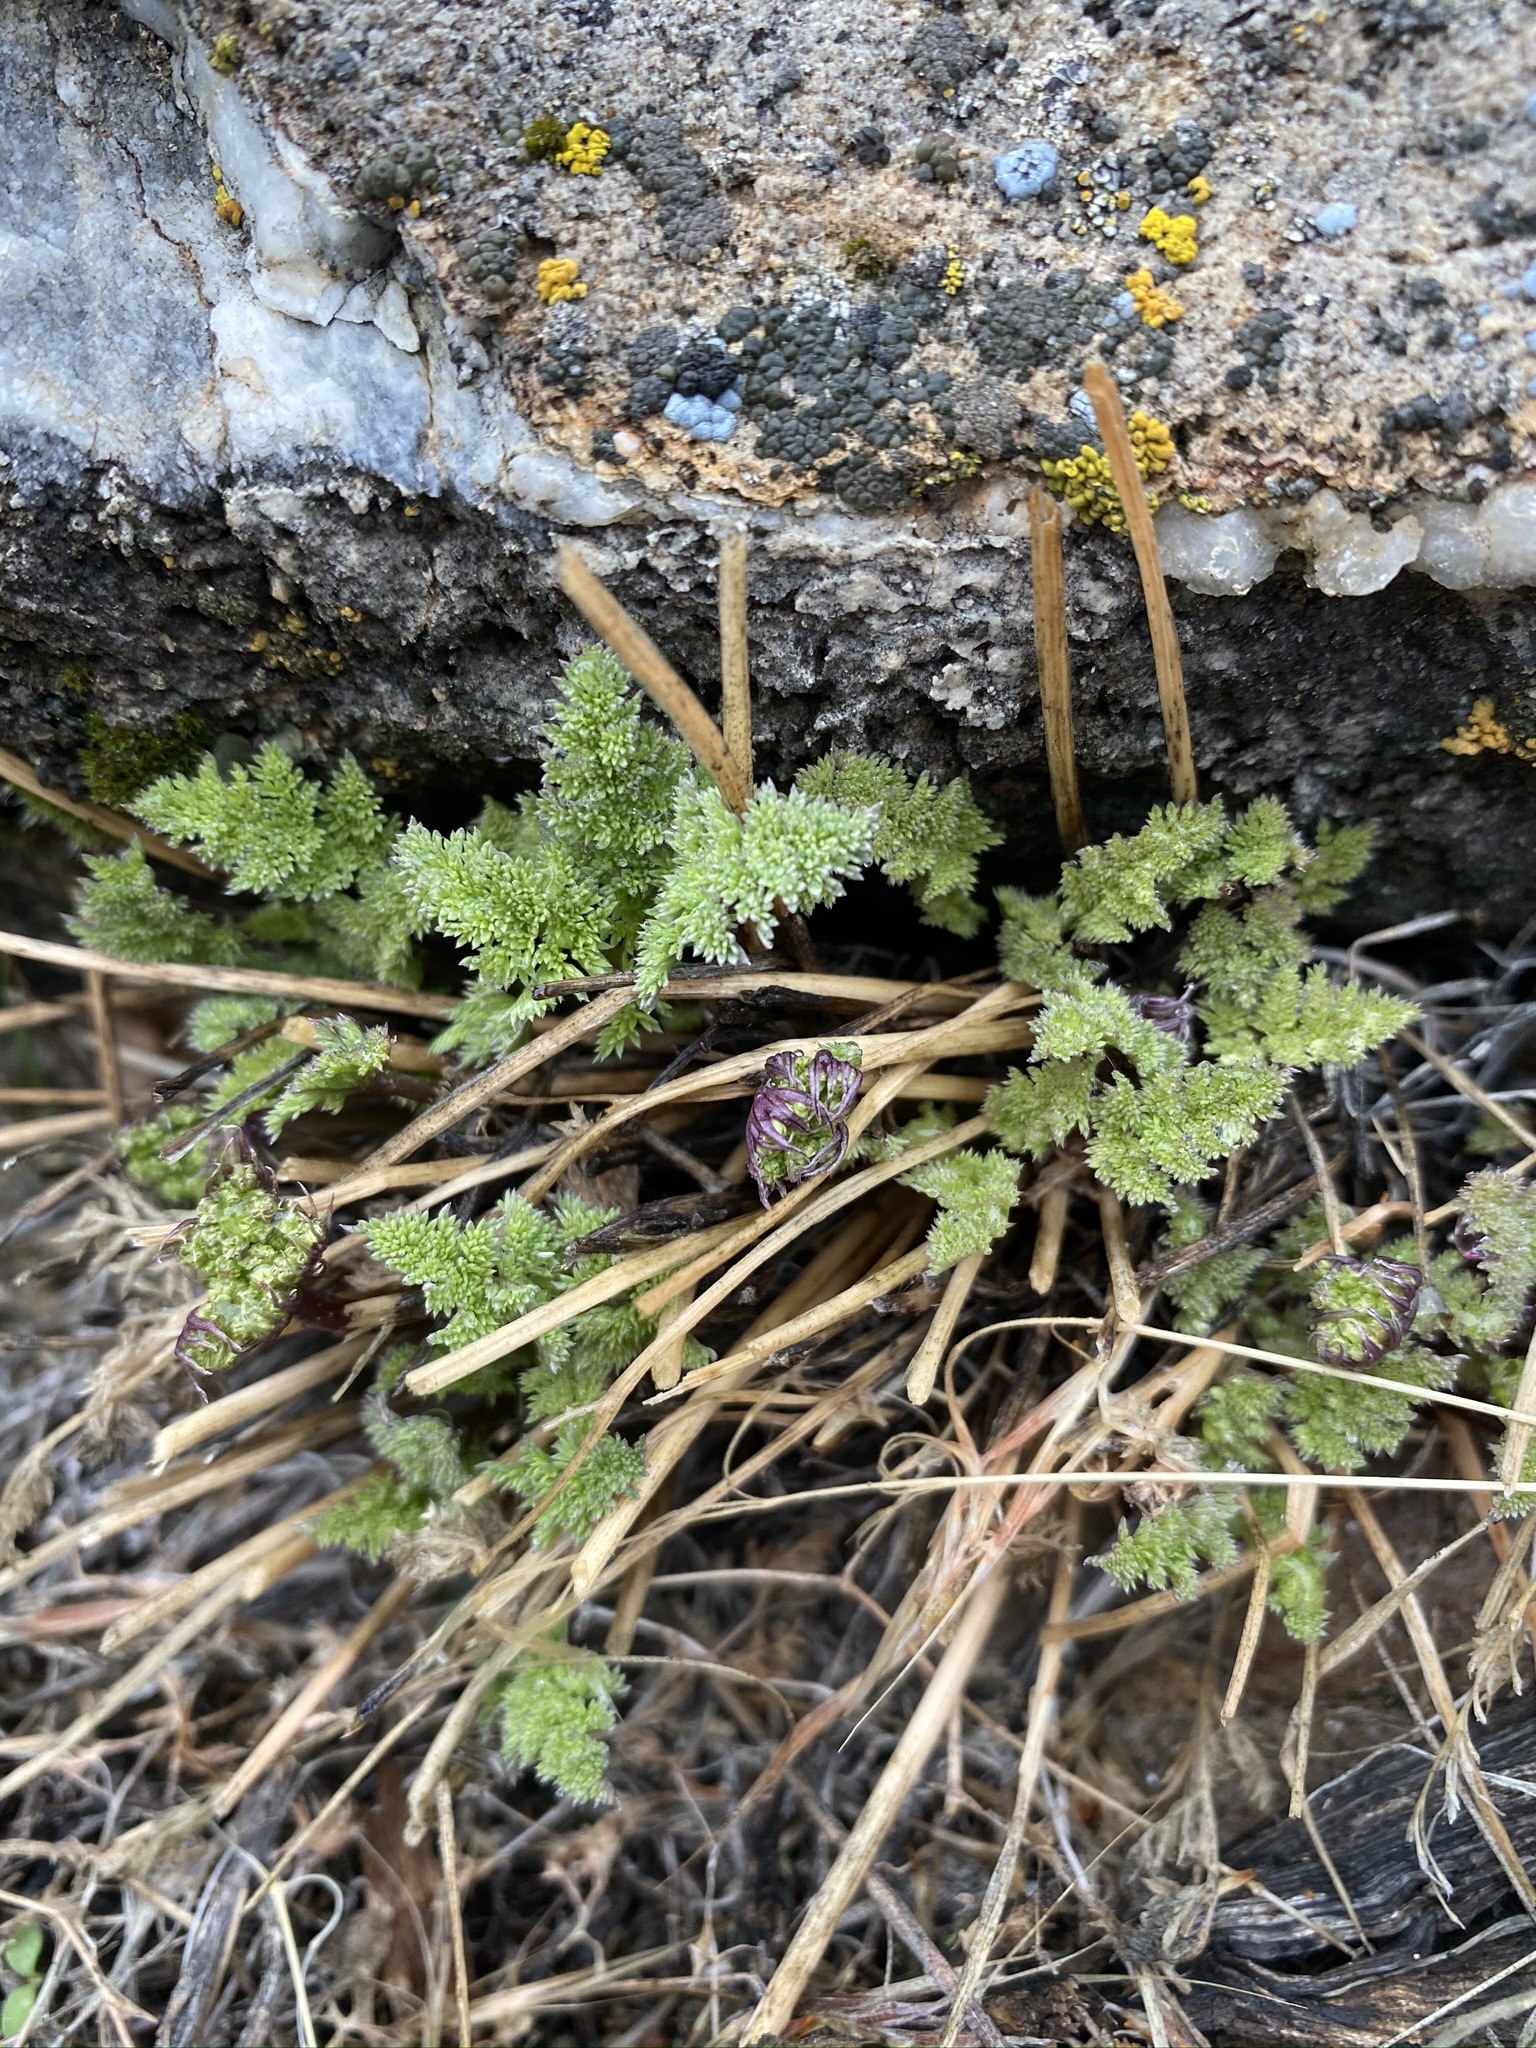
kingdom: Plantae
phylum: Tracheophyta
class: Magnoliopsida
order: Apiales
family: Apiaceae
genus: Aulospermum
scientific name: Aulospermum aboriginum
